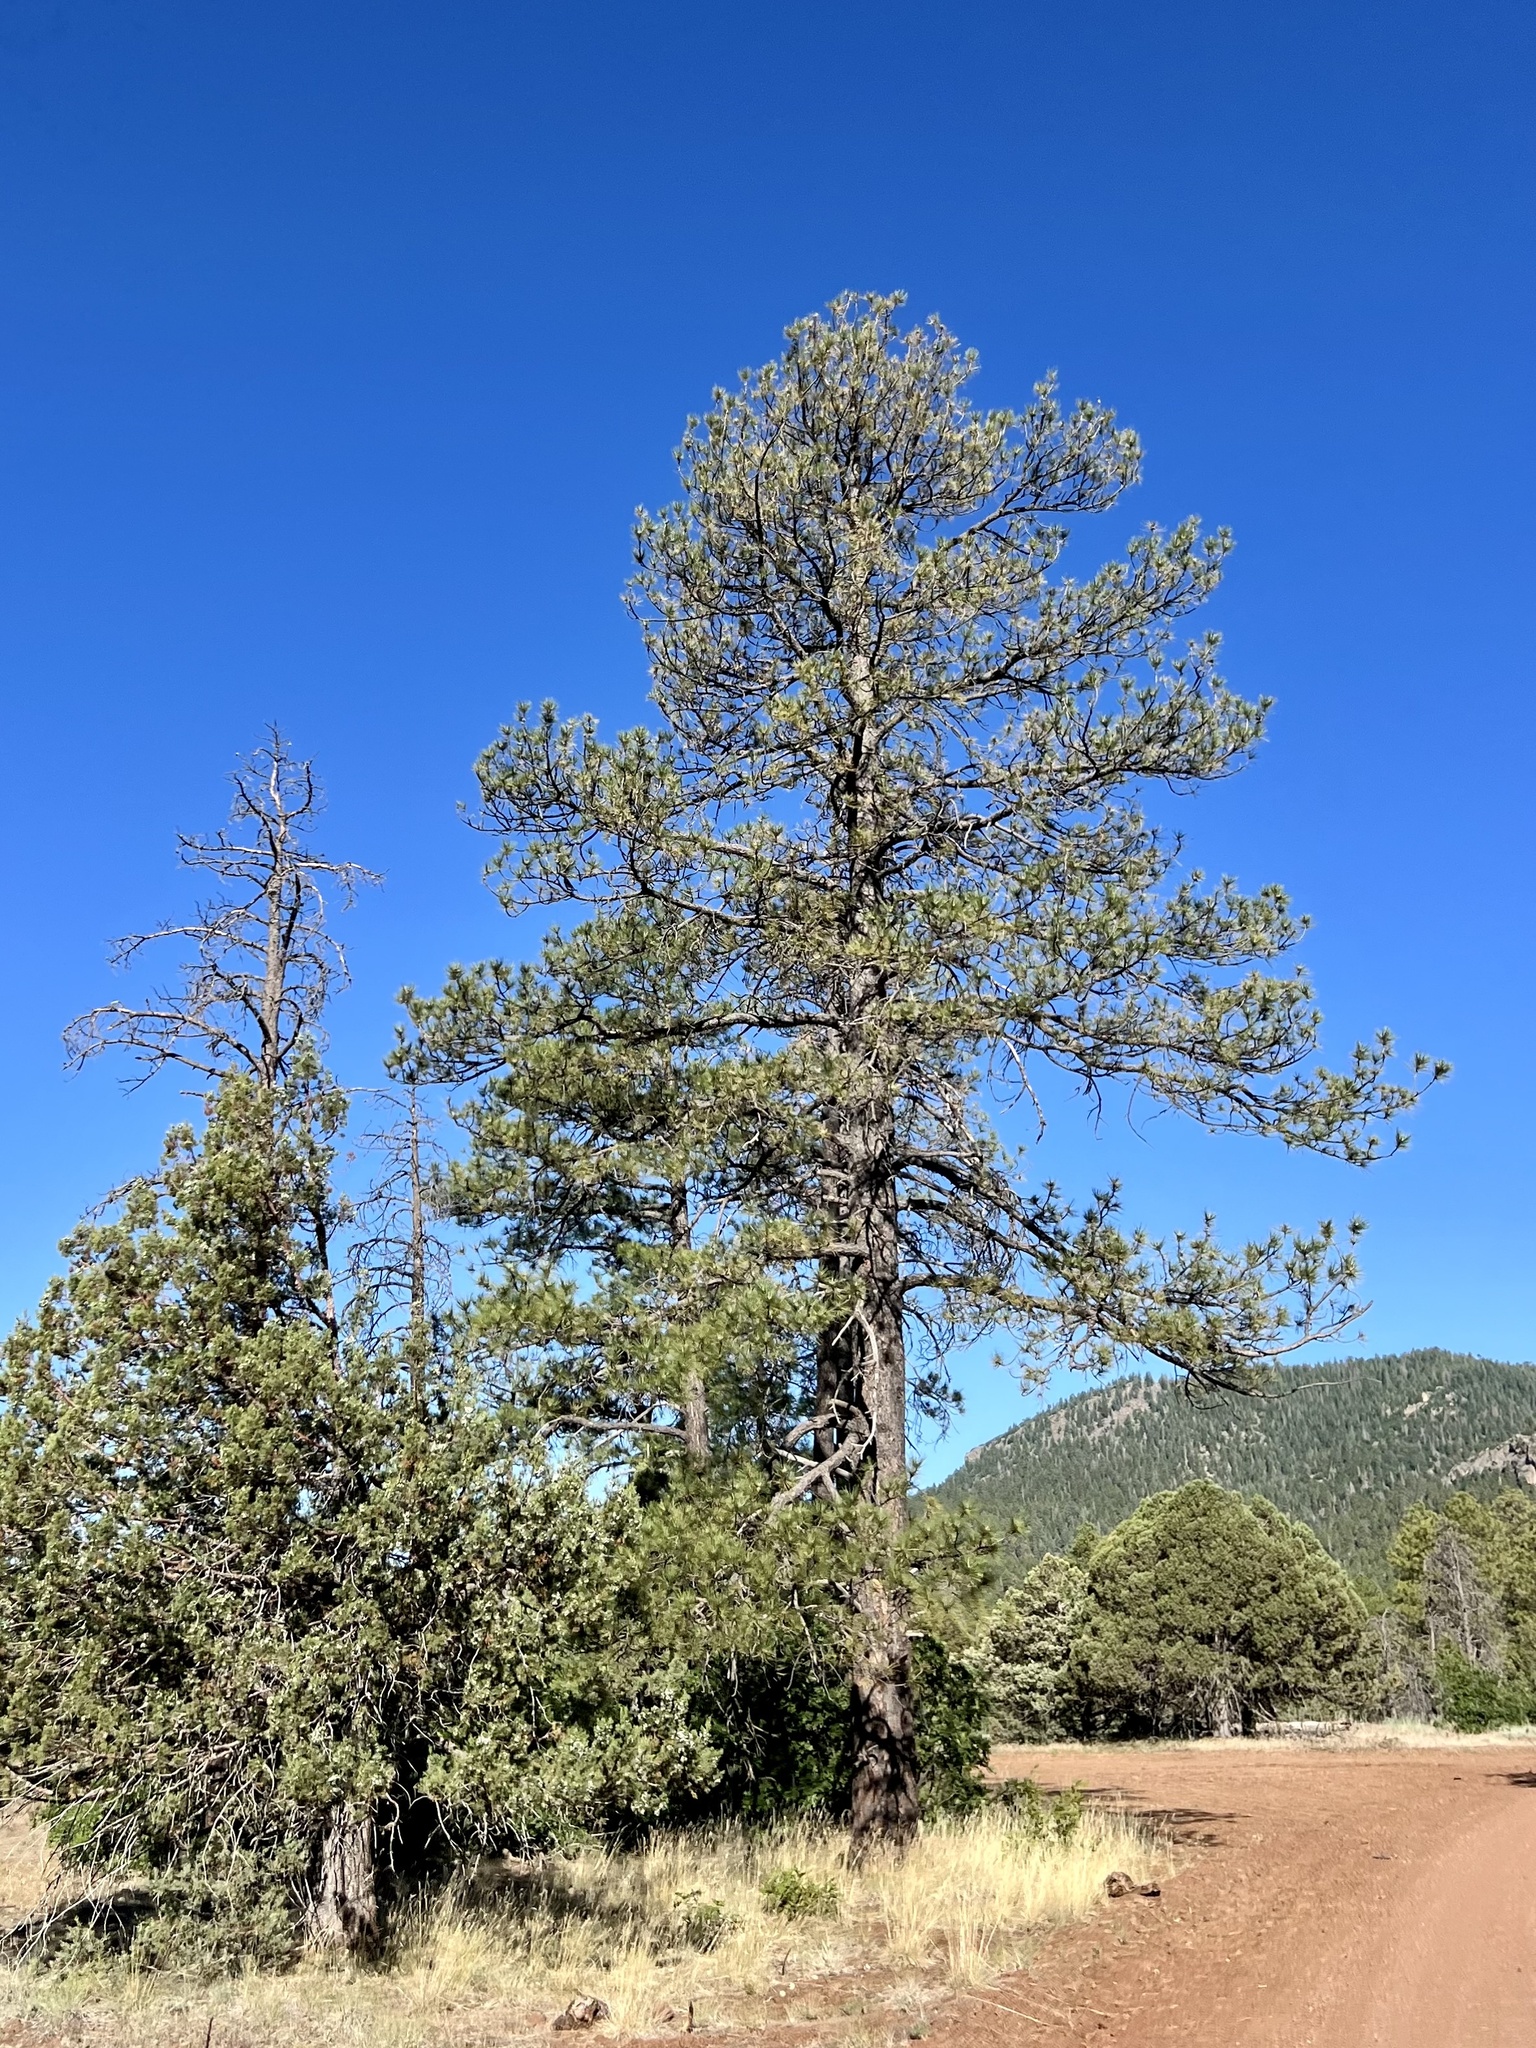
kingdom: Plantae
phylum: Tracheophyta
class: Pinopsida
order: Pinales
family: Pinaceae
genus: Pinus
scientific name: Pinus ponderosa
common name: Western yellow-pine
